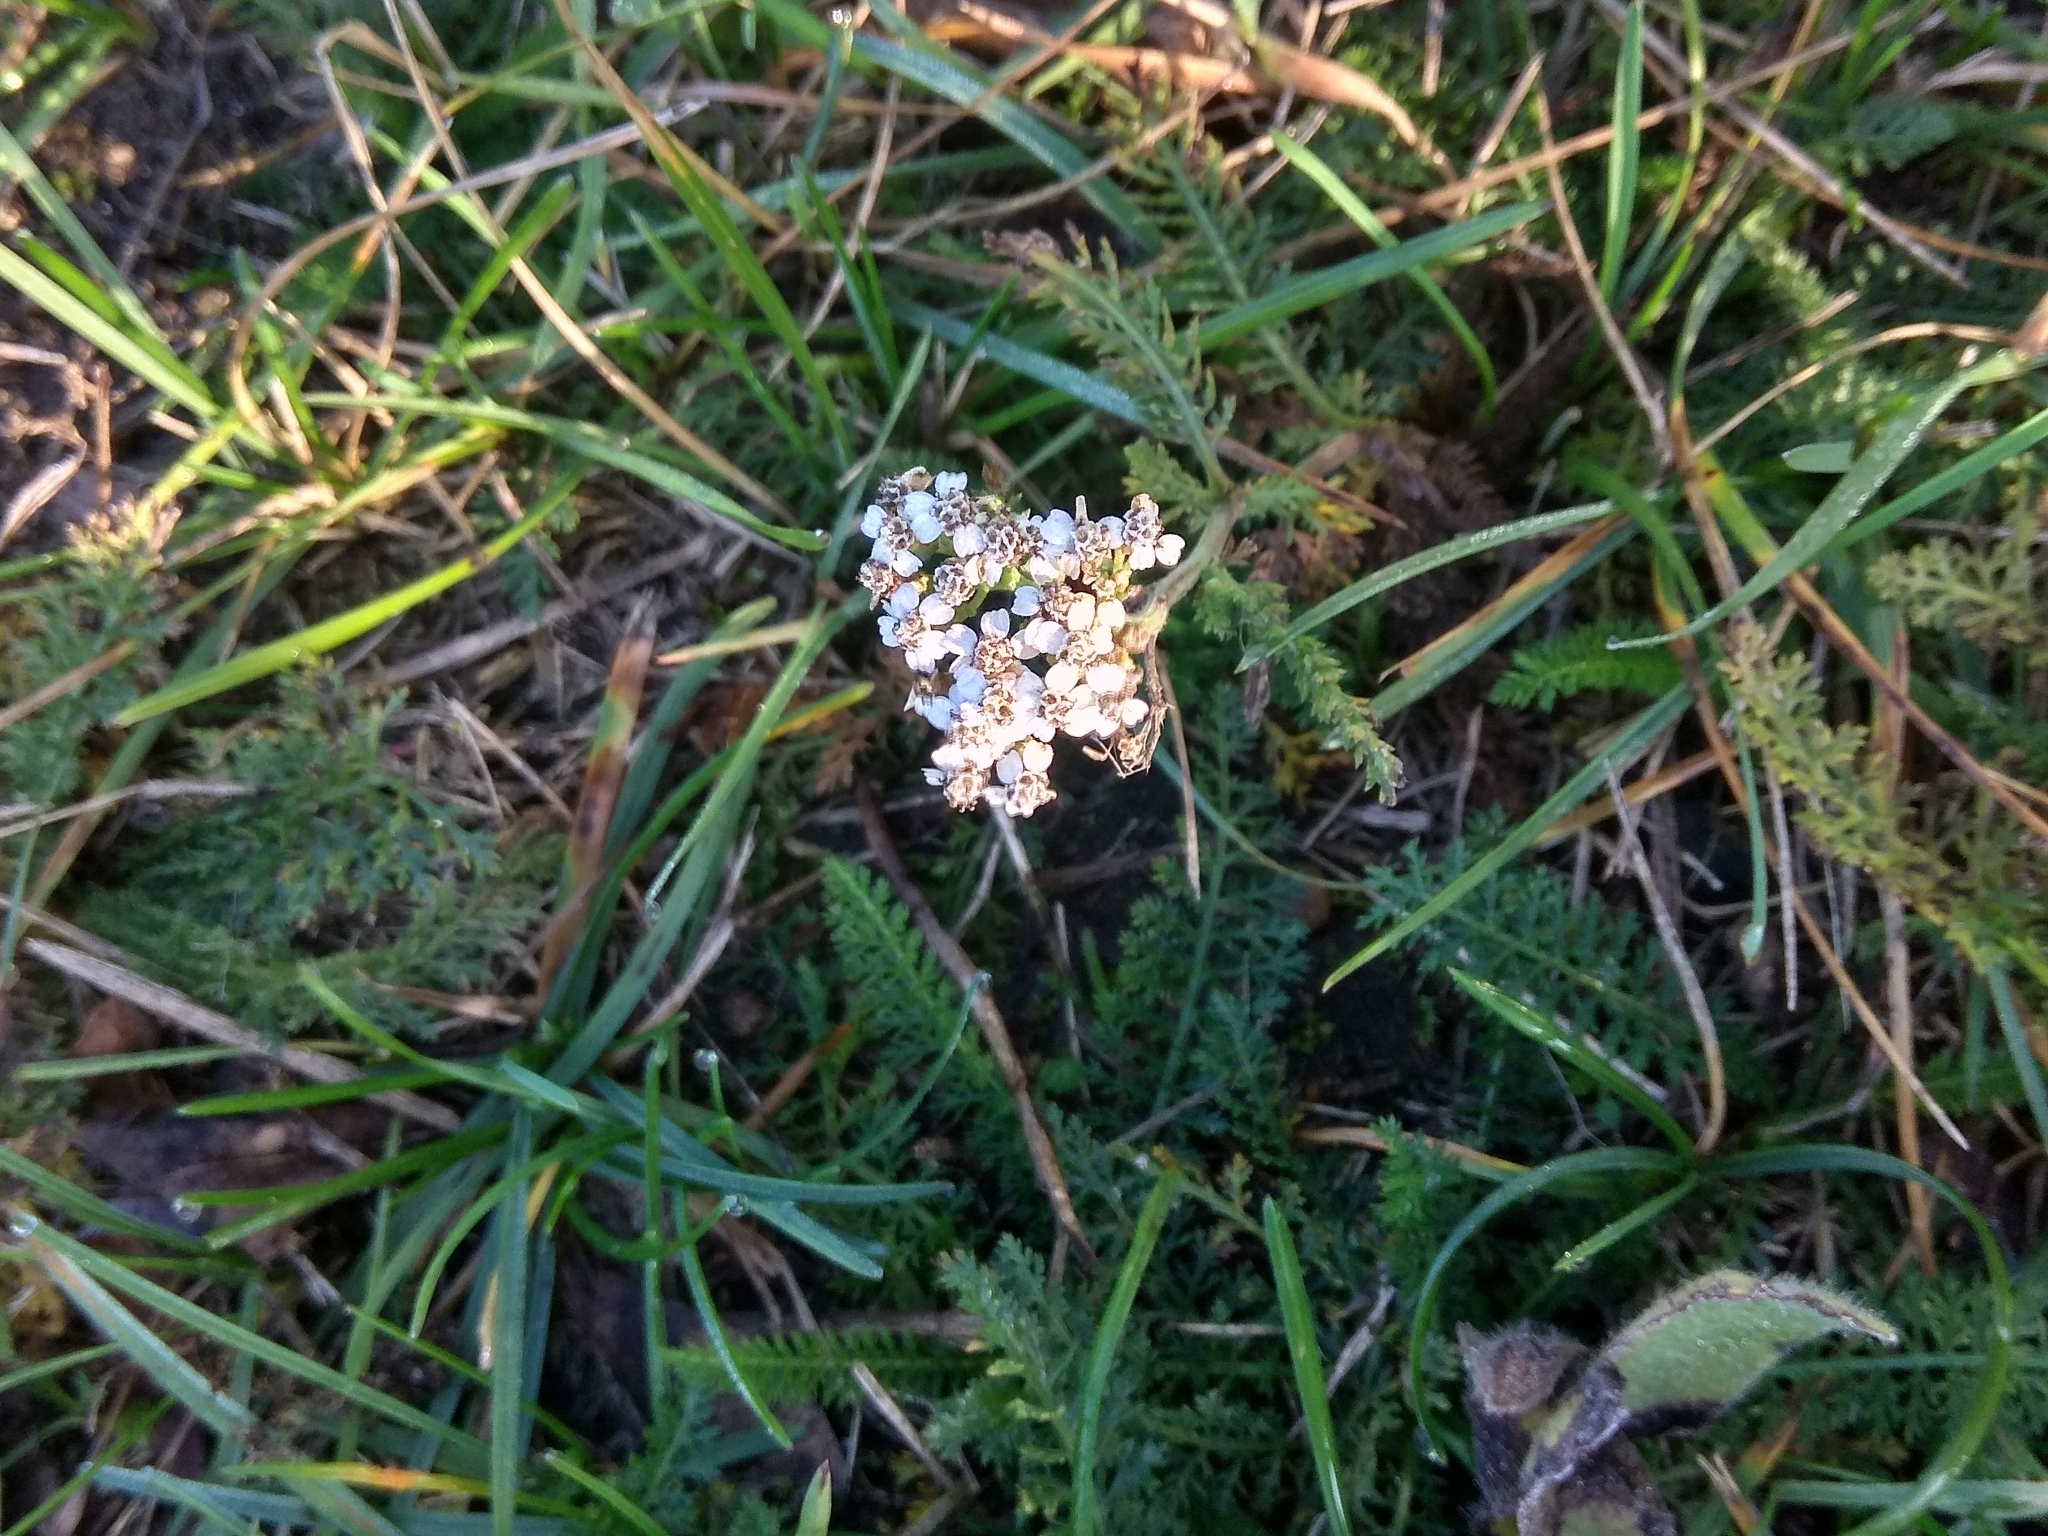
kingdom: Plantae
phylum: Tracheophyta
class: Magnoliopsida
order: Asterales
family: Asteraceae
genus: Achillea
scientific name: Achillea millefolium
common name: Yarrow
